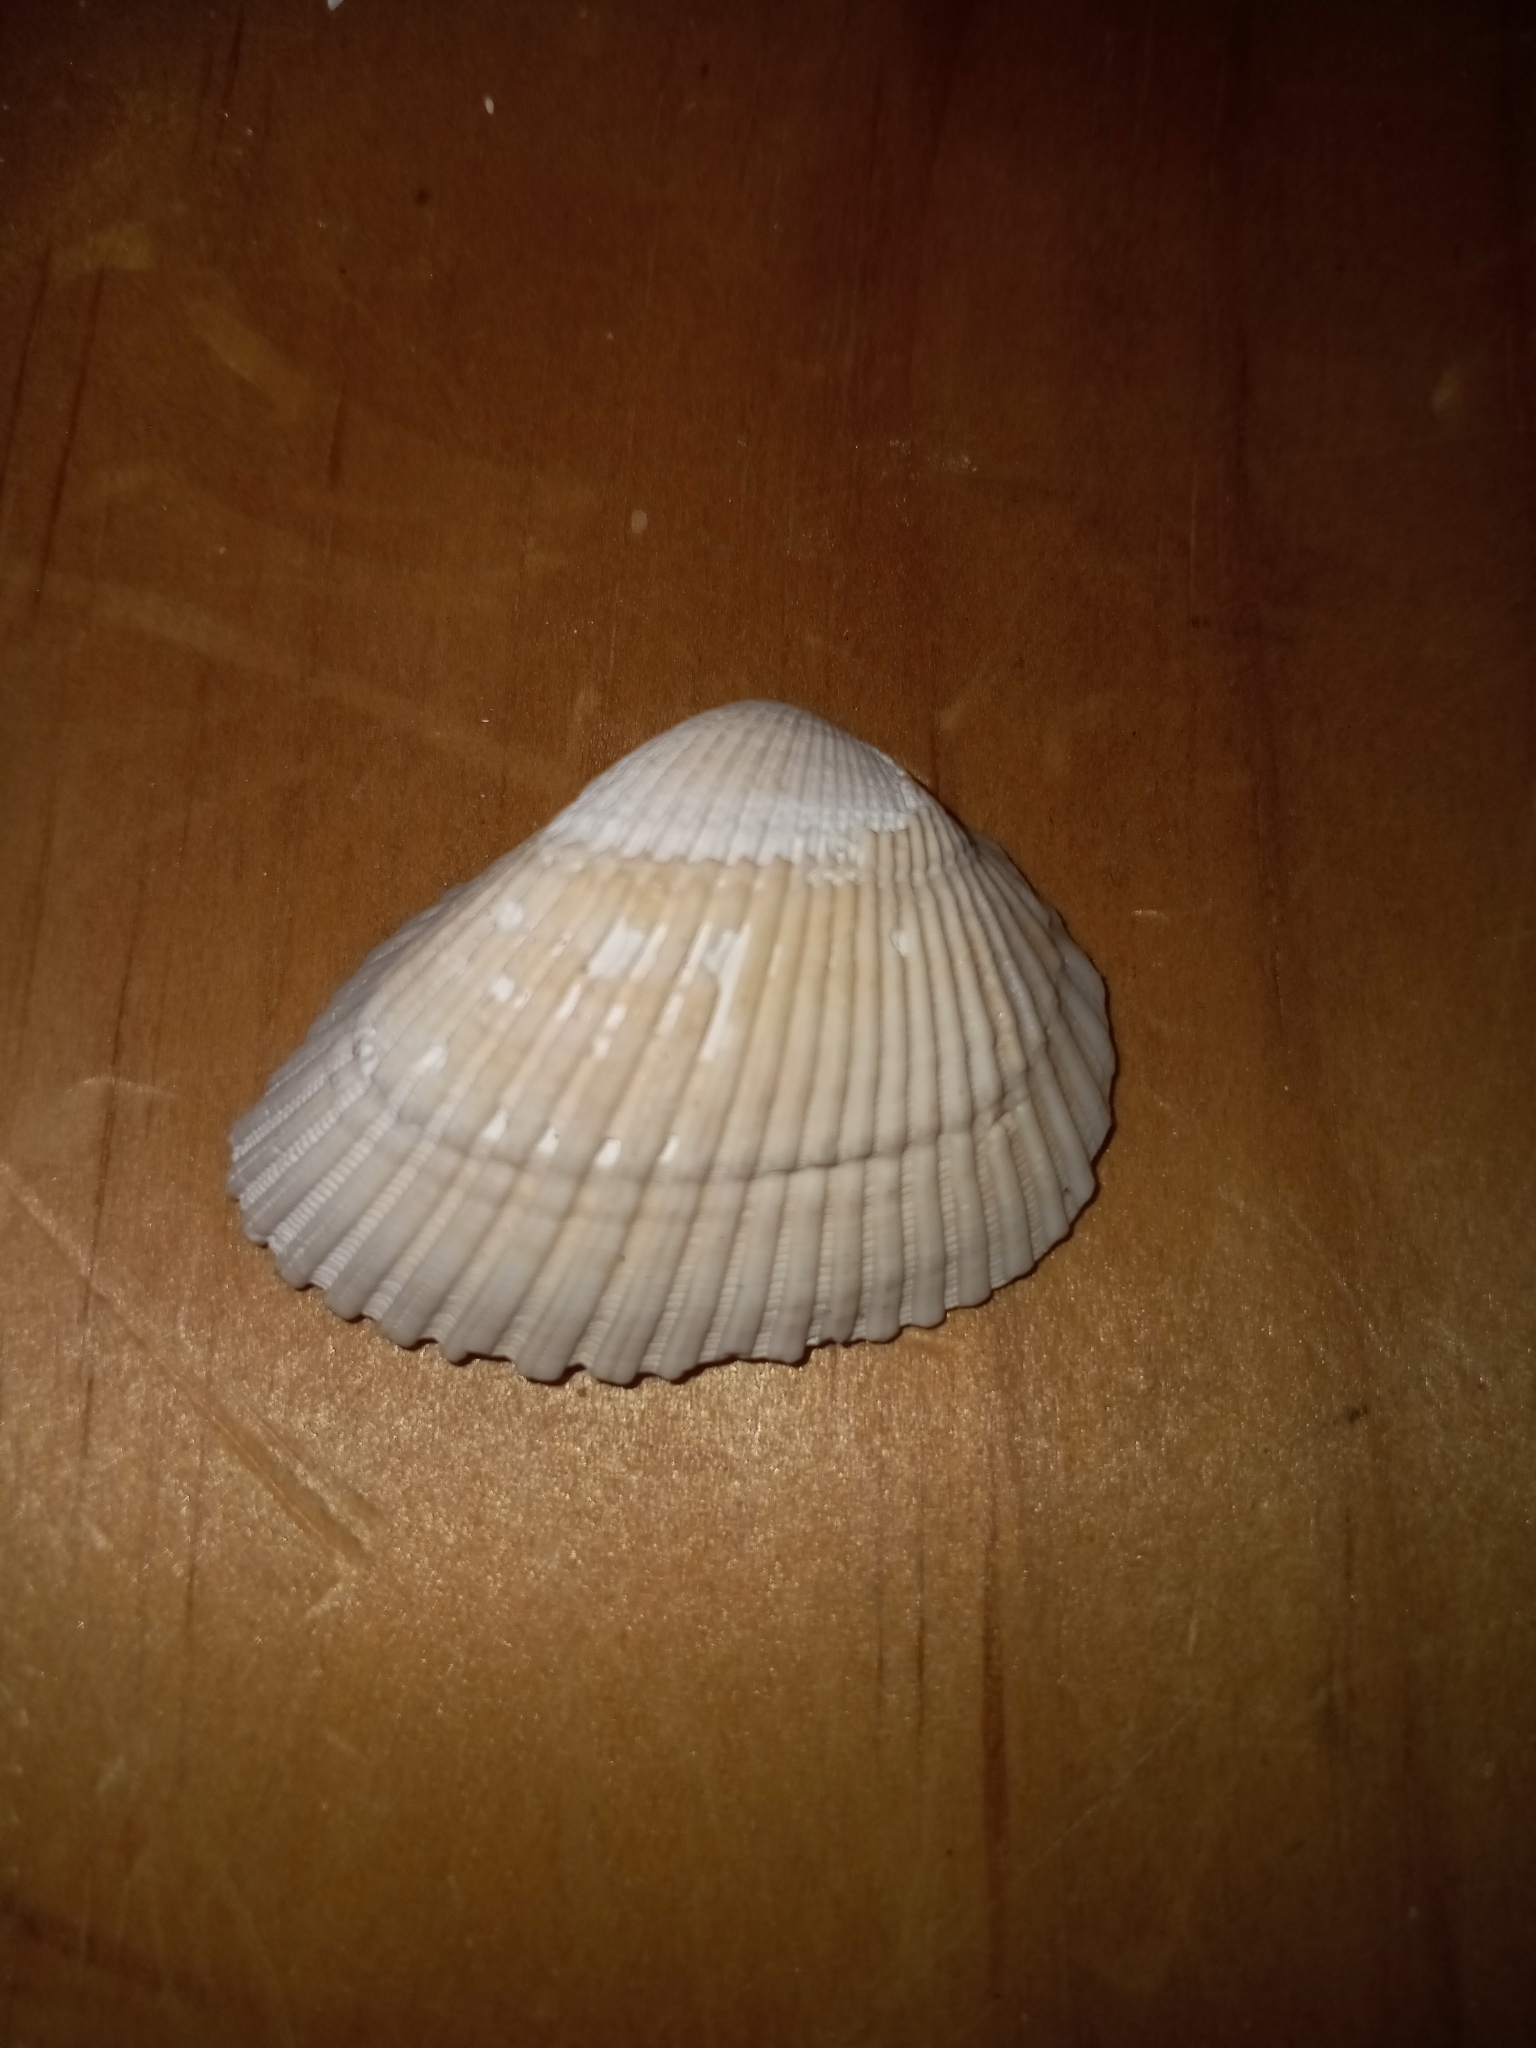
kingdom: Animalia
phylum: Mollusca
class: Bivalvia
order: Arcida
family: Noetiidae
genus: Noetia
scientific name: Noetia ponderosa
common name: Ponderous ark
